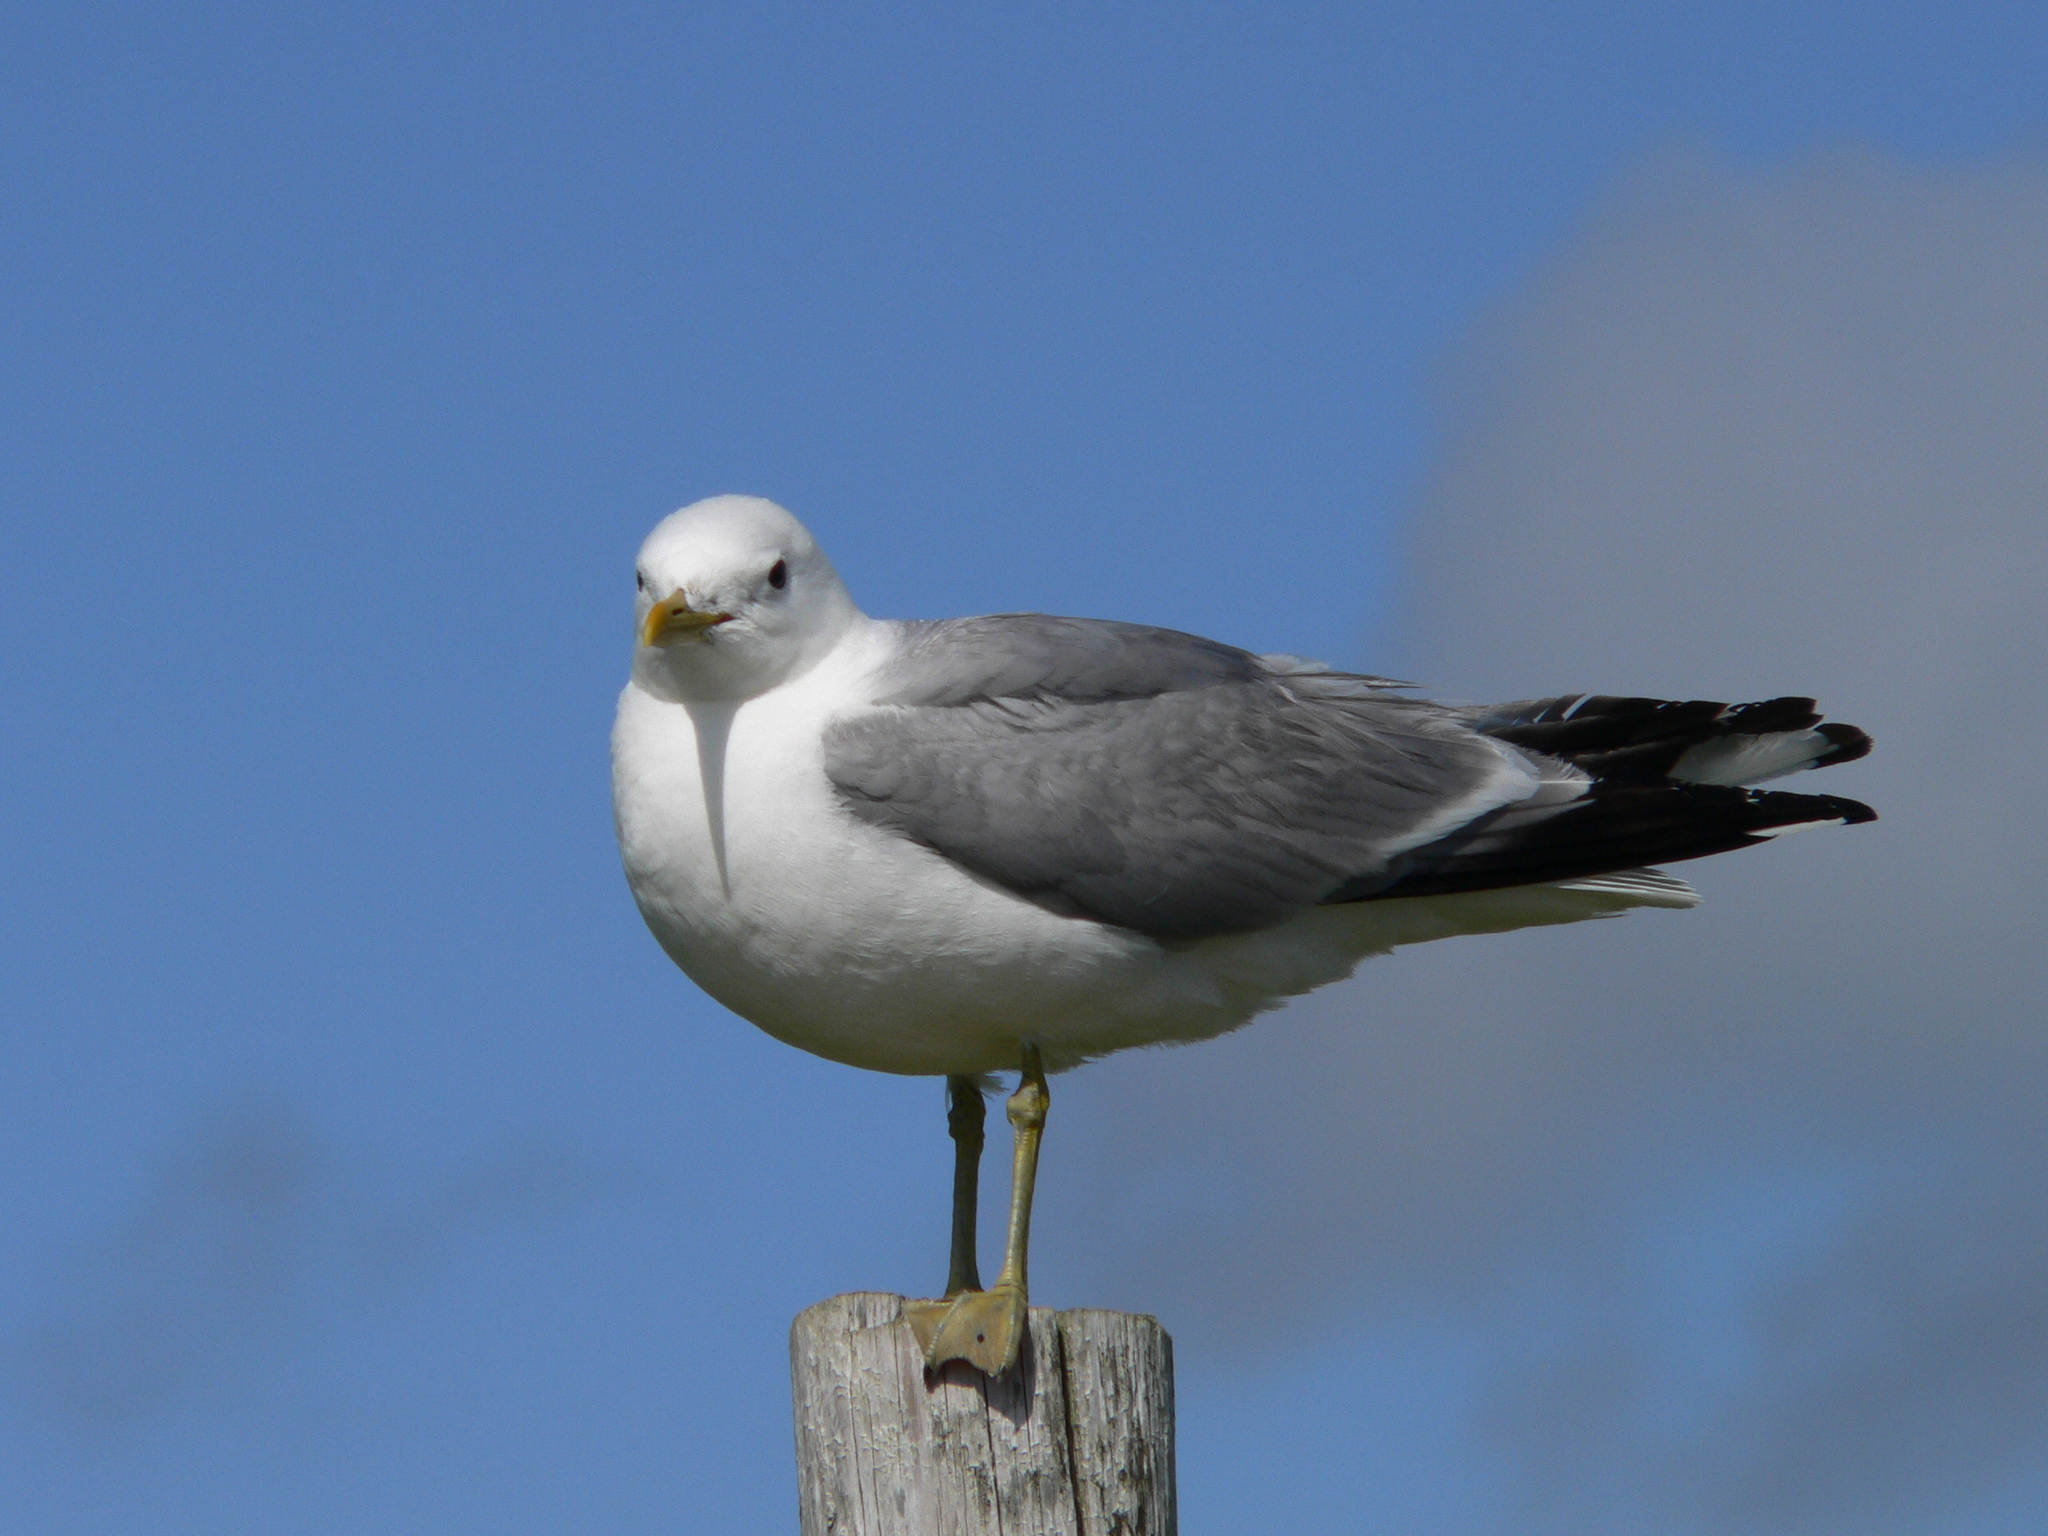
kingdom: Animalia
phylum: Chordata
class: Aves
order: Charadriiformes
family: Laridae
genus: Larus
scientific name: Larus canus
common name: Mew gull
